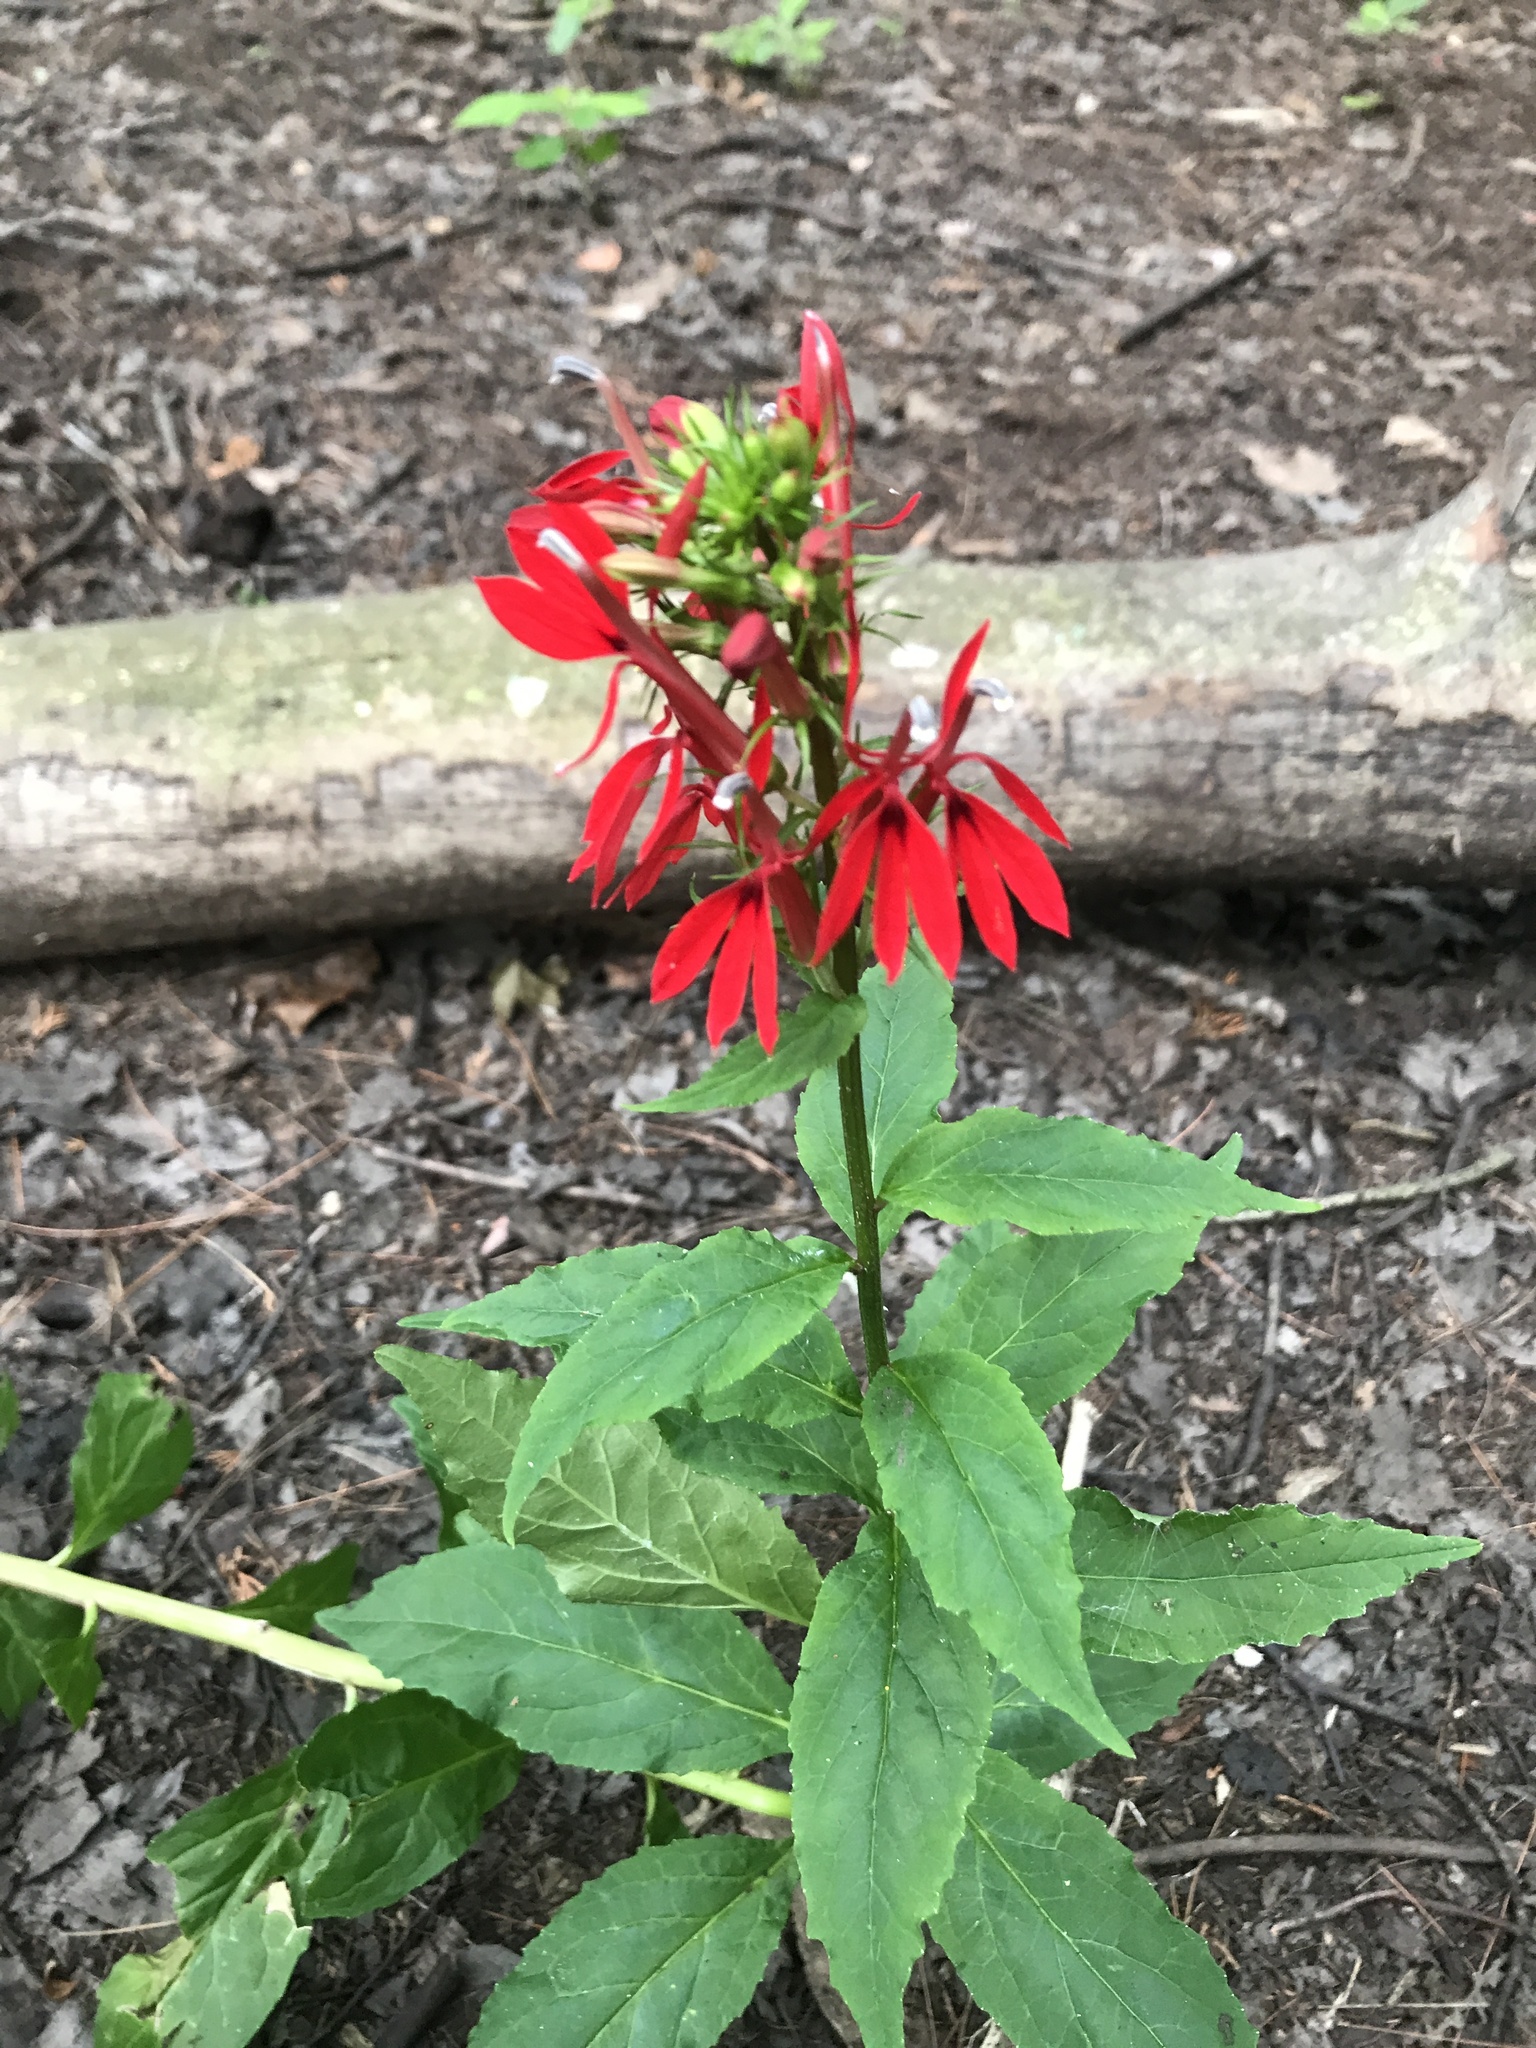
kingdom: Plantae
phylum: Tracheophyta
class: Magnoliopsida
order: Asterales
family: Campanulaceae
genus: Lobelia
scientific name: Lobelia cardinalis
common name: Cardinal flower
